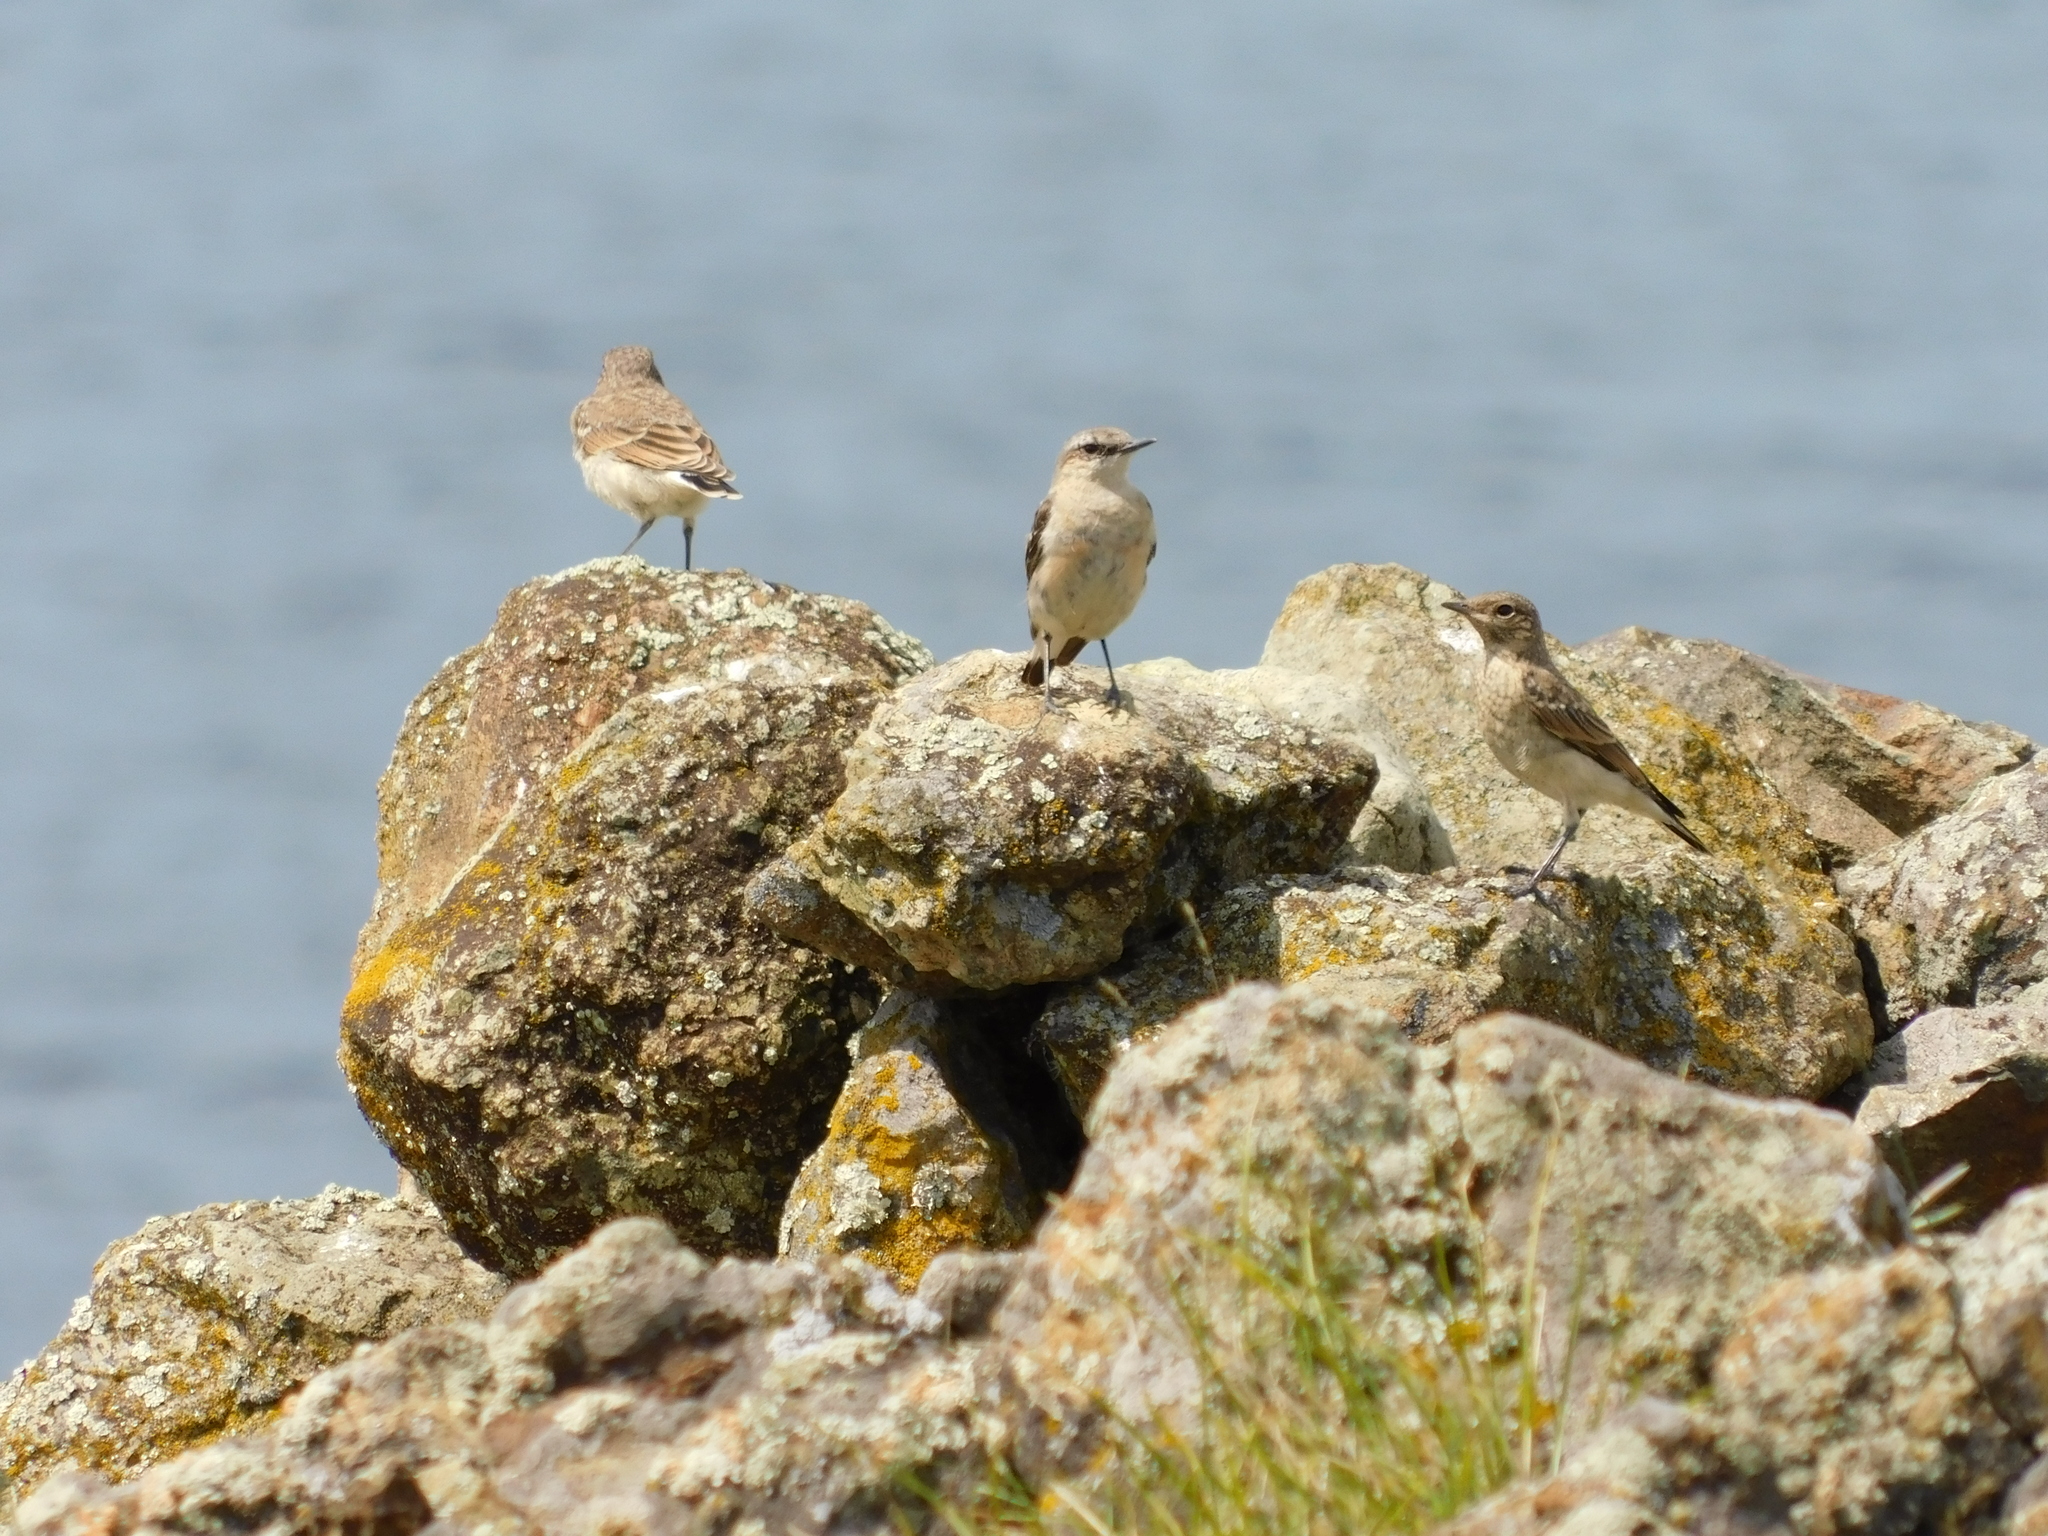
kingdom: Animalia
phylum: Chordata
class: Aves
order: Passeriformes
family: Muscicapidae
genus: Oenanthe
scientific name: Oenanthe oenanthe
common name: Northern wheatear
